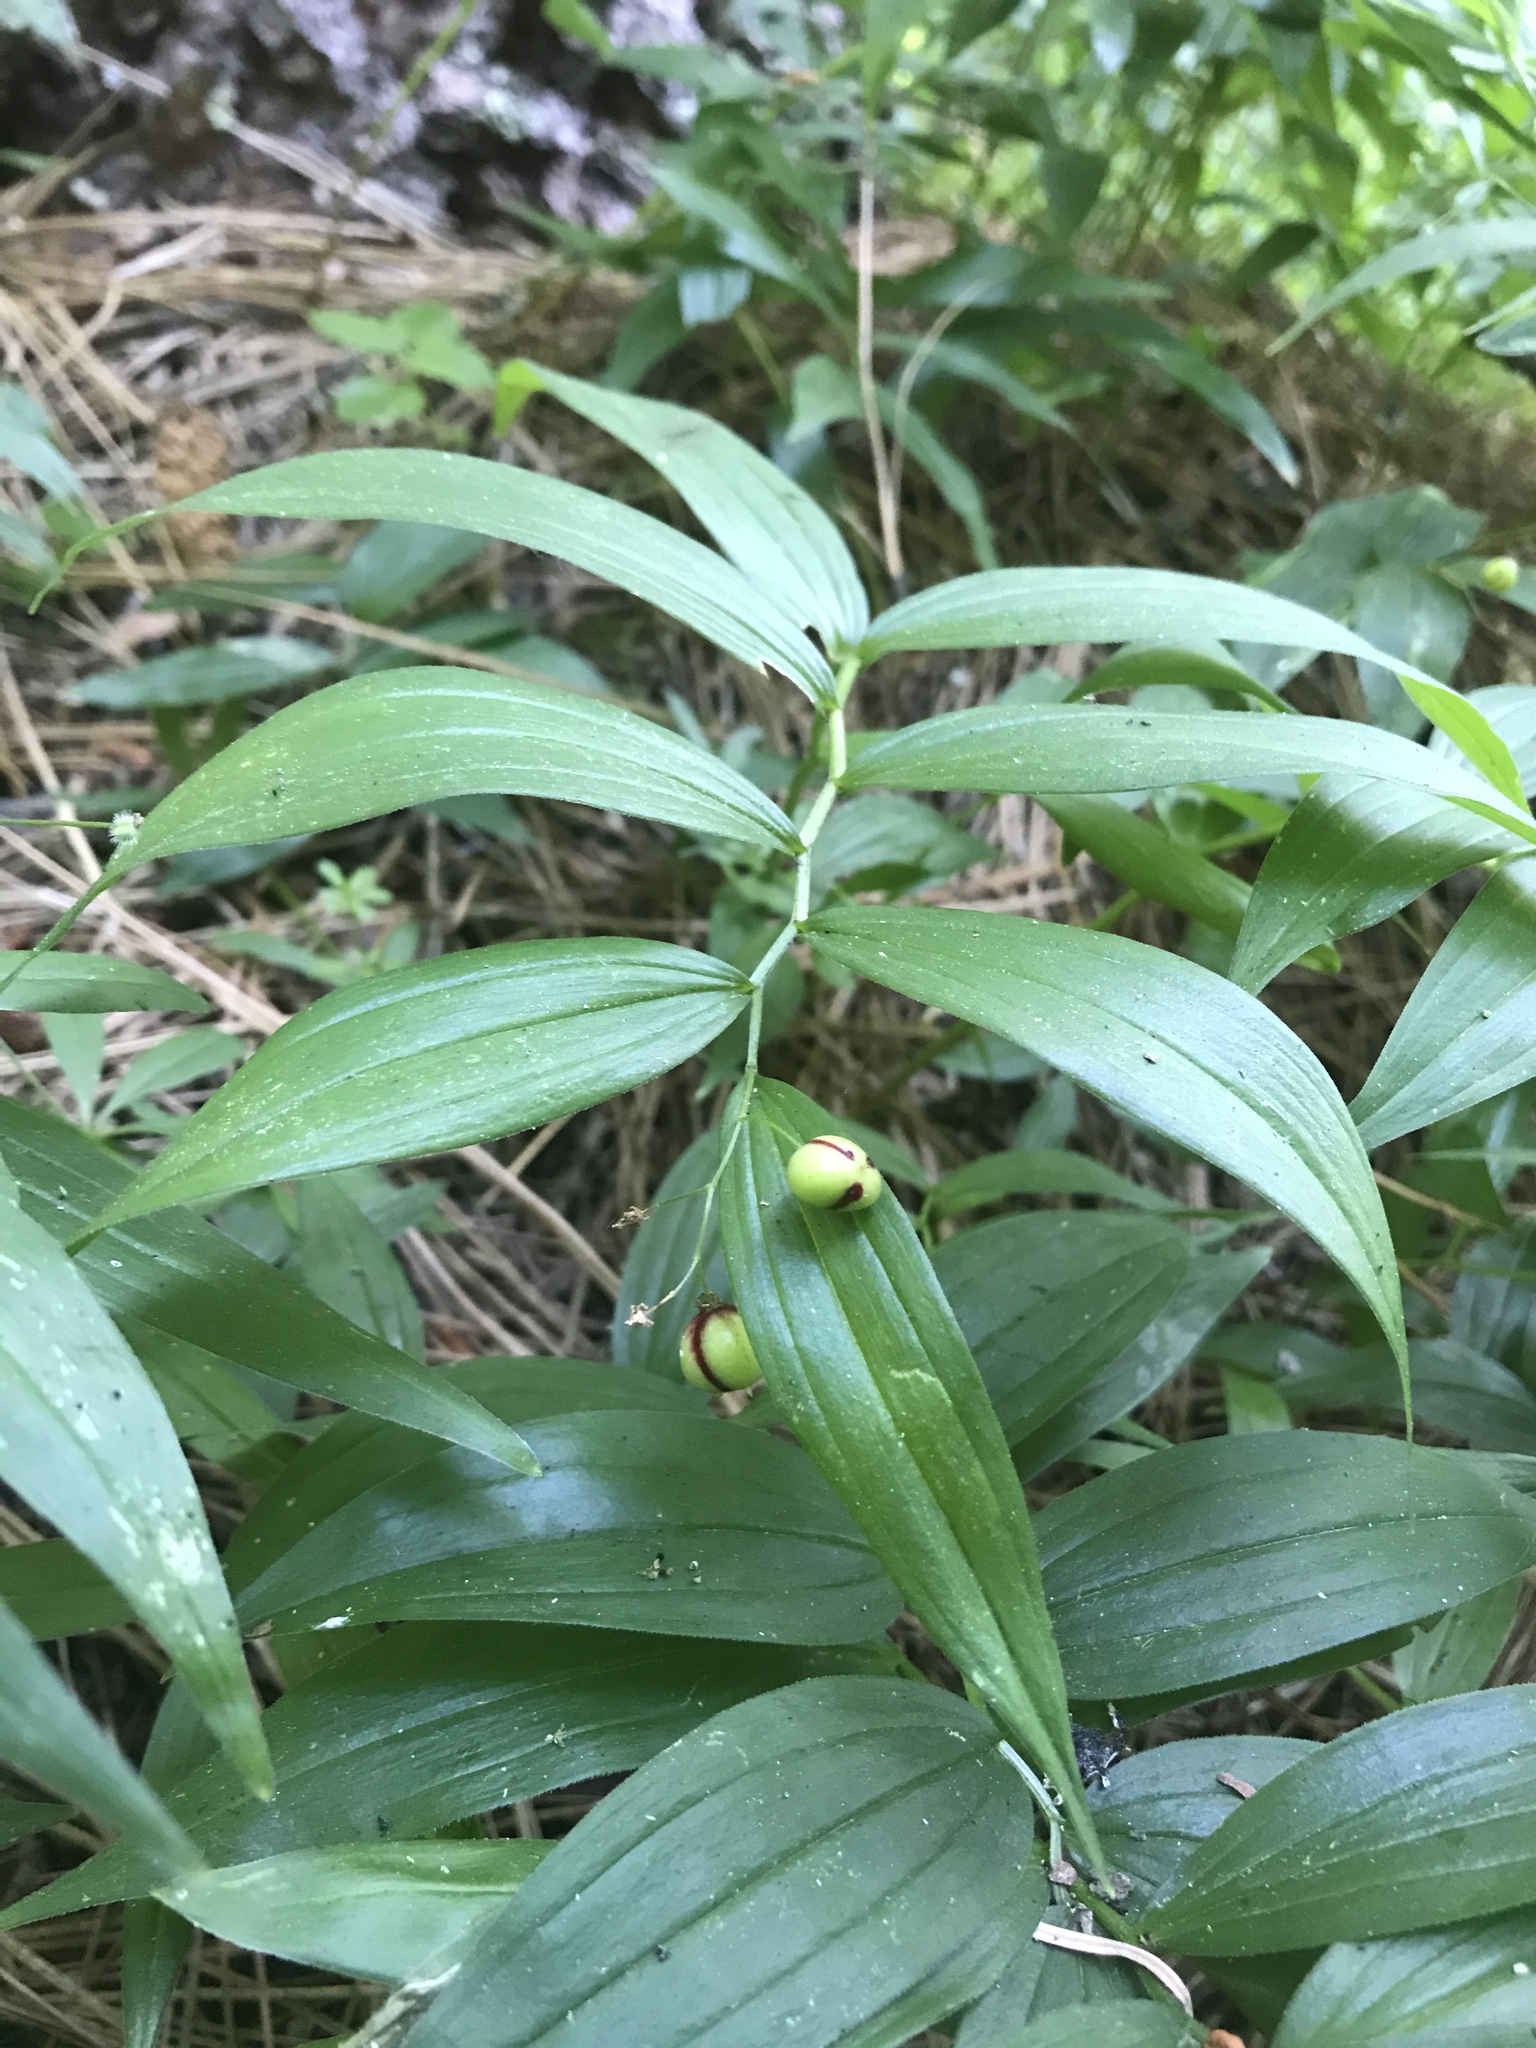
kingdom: Plantae
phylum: Tracheophyta
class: Liliopsida
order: Asparagales
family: Asparagaceae
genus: Maianthemum
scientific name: Maianthemum stellatum
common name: Little false solomon's seal
